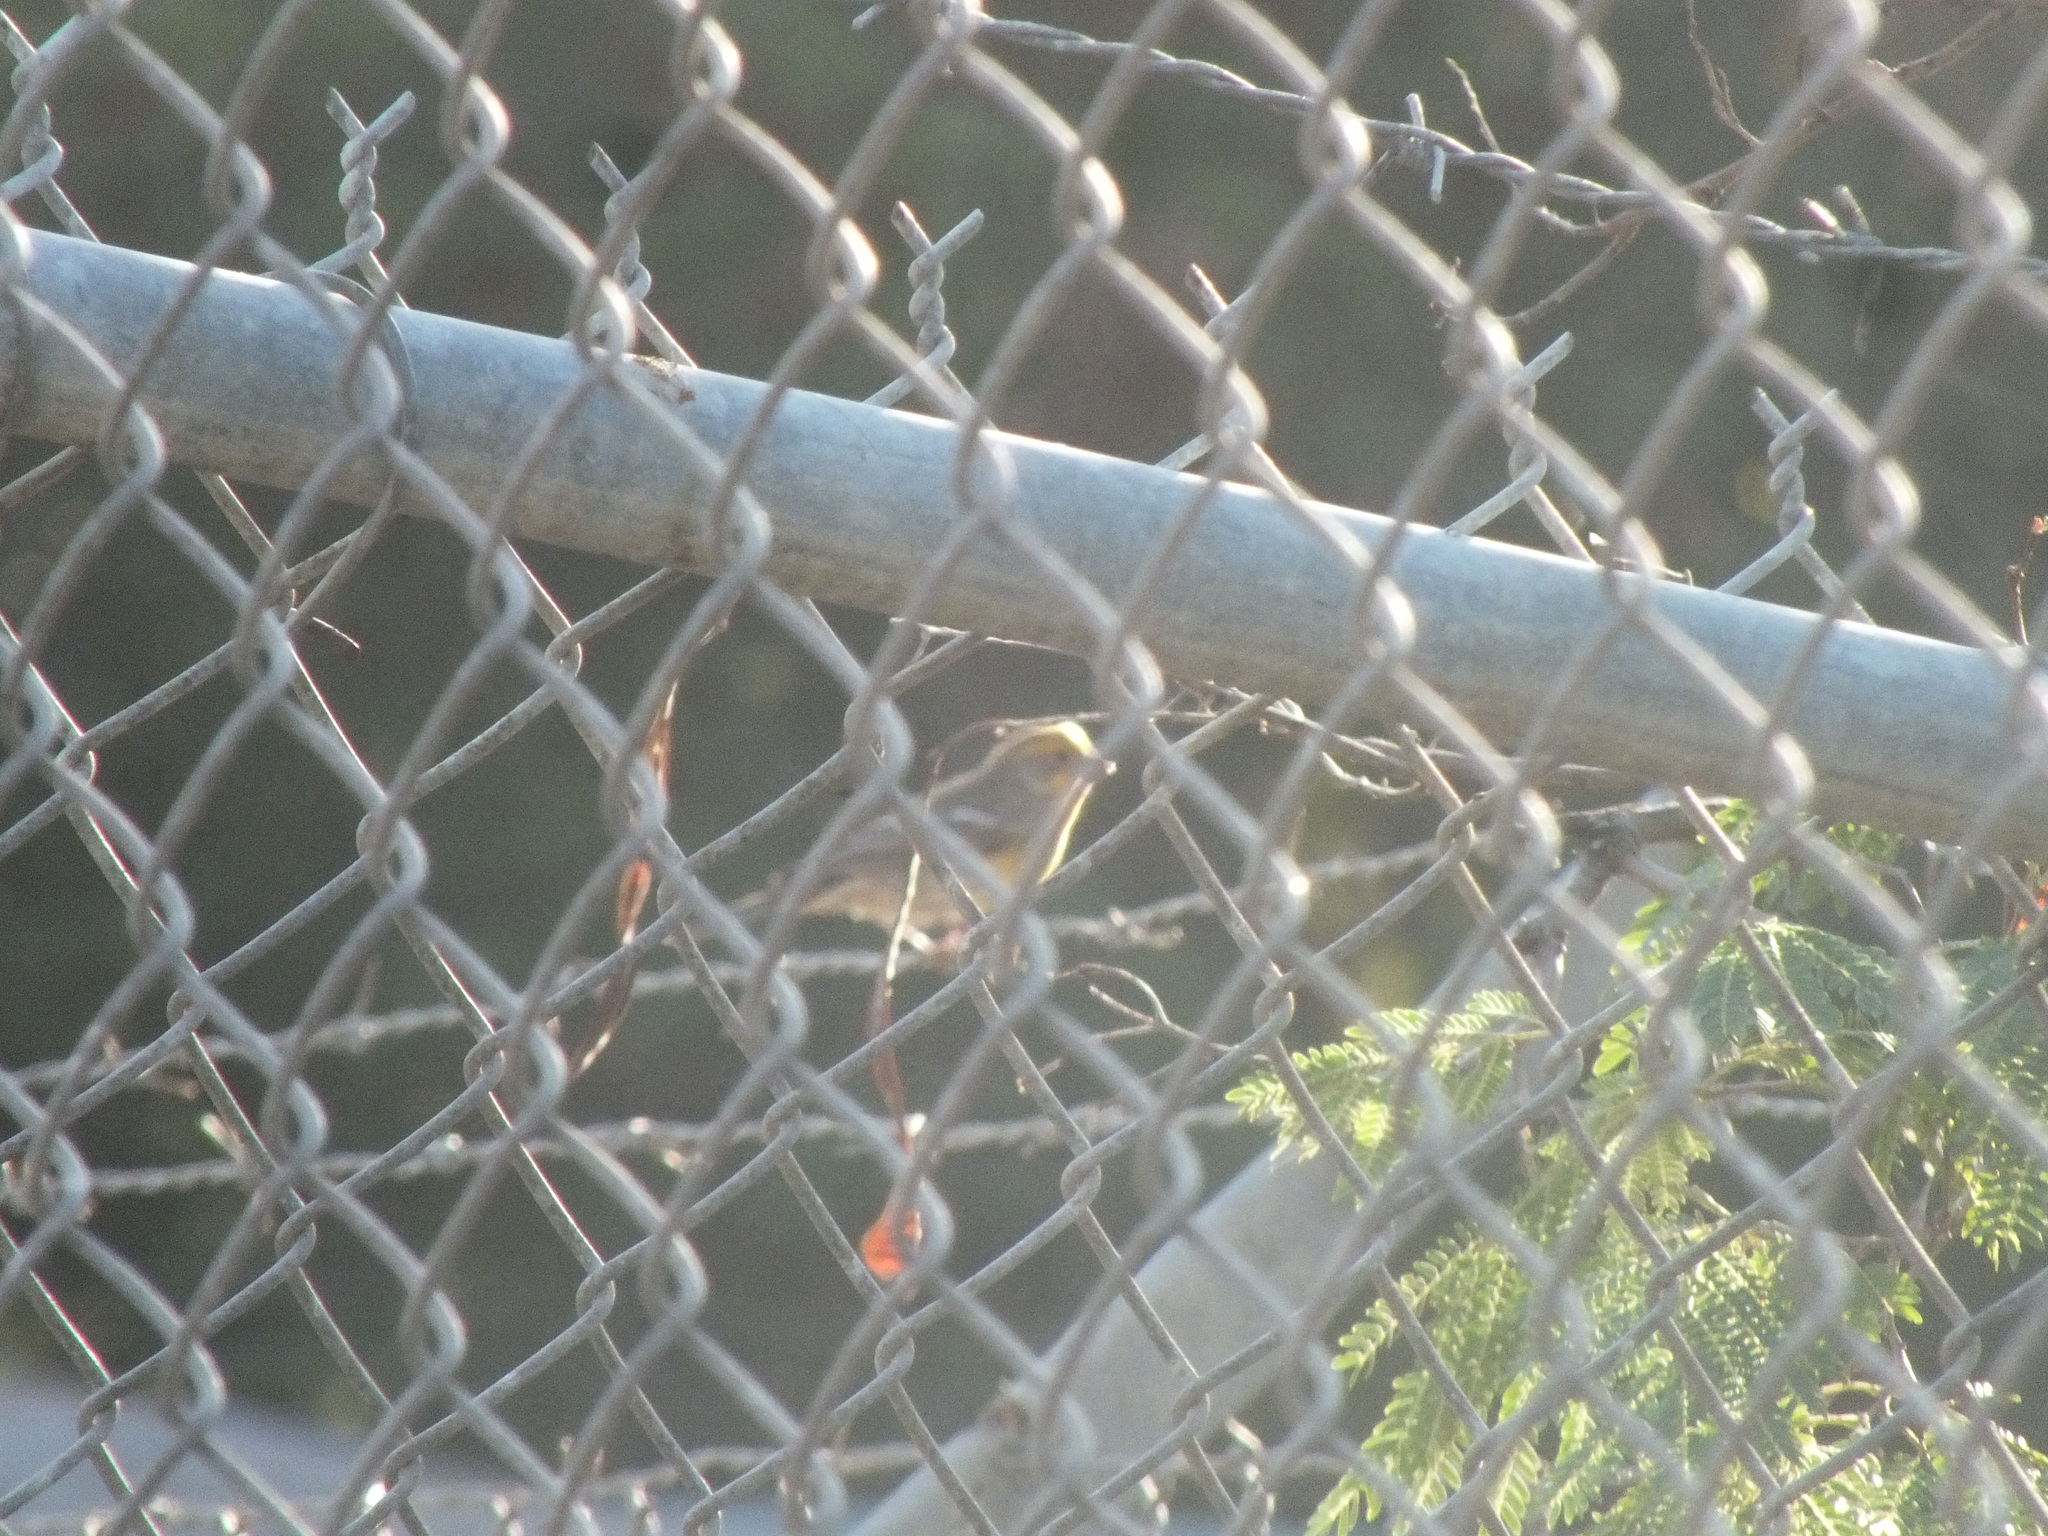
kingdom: Animalia
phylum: Chordata
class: Aves
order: Passeriformes
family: Fringillidae
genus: Haemorhous
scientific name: Haemorhous mexicanus
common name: House finch
